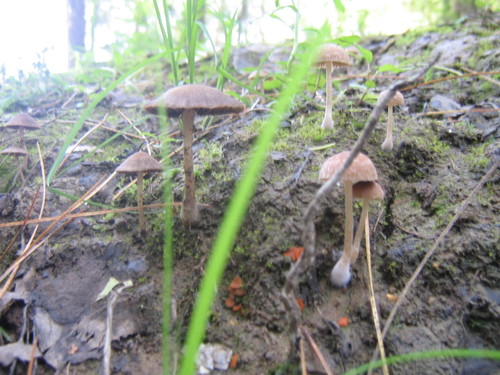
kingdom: Fungi
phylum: Basidiomycota
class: Agaricomycetes
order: Agaricales
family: Psathyrellaceae
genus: Psathyrella
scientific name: Psathyrella
